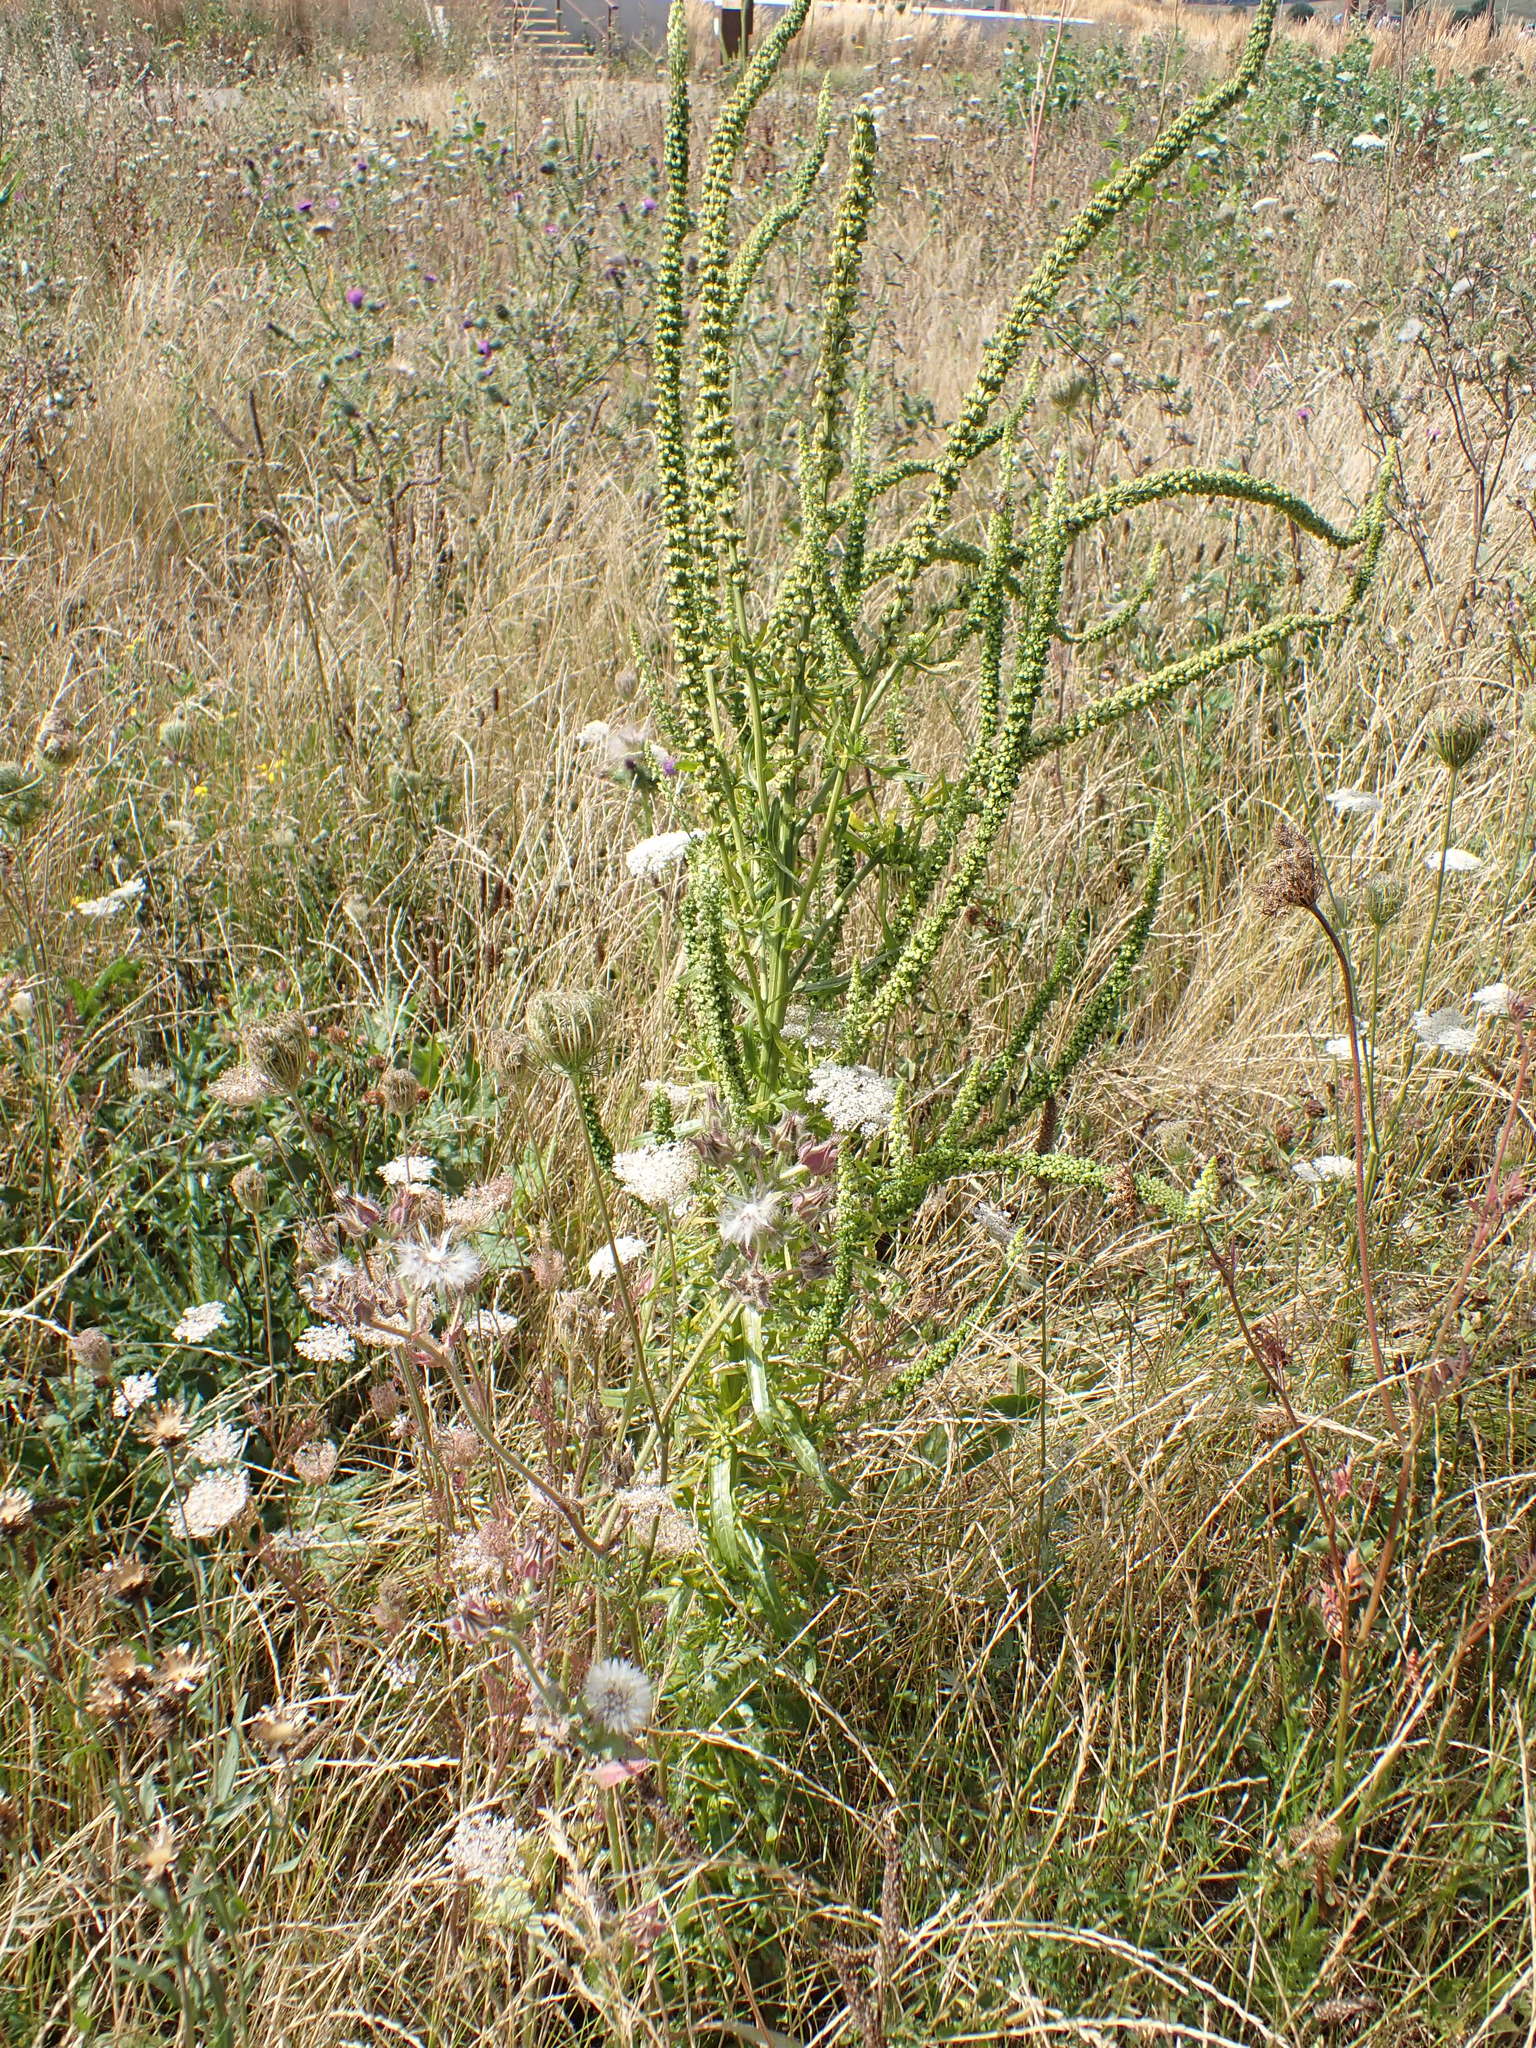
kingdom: Plantae
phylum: Tracheophyta
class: Magnoliopsida
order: Brassicales
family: Resedaceae
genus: Reseda
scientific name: Reseda luteola
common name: Weld
